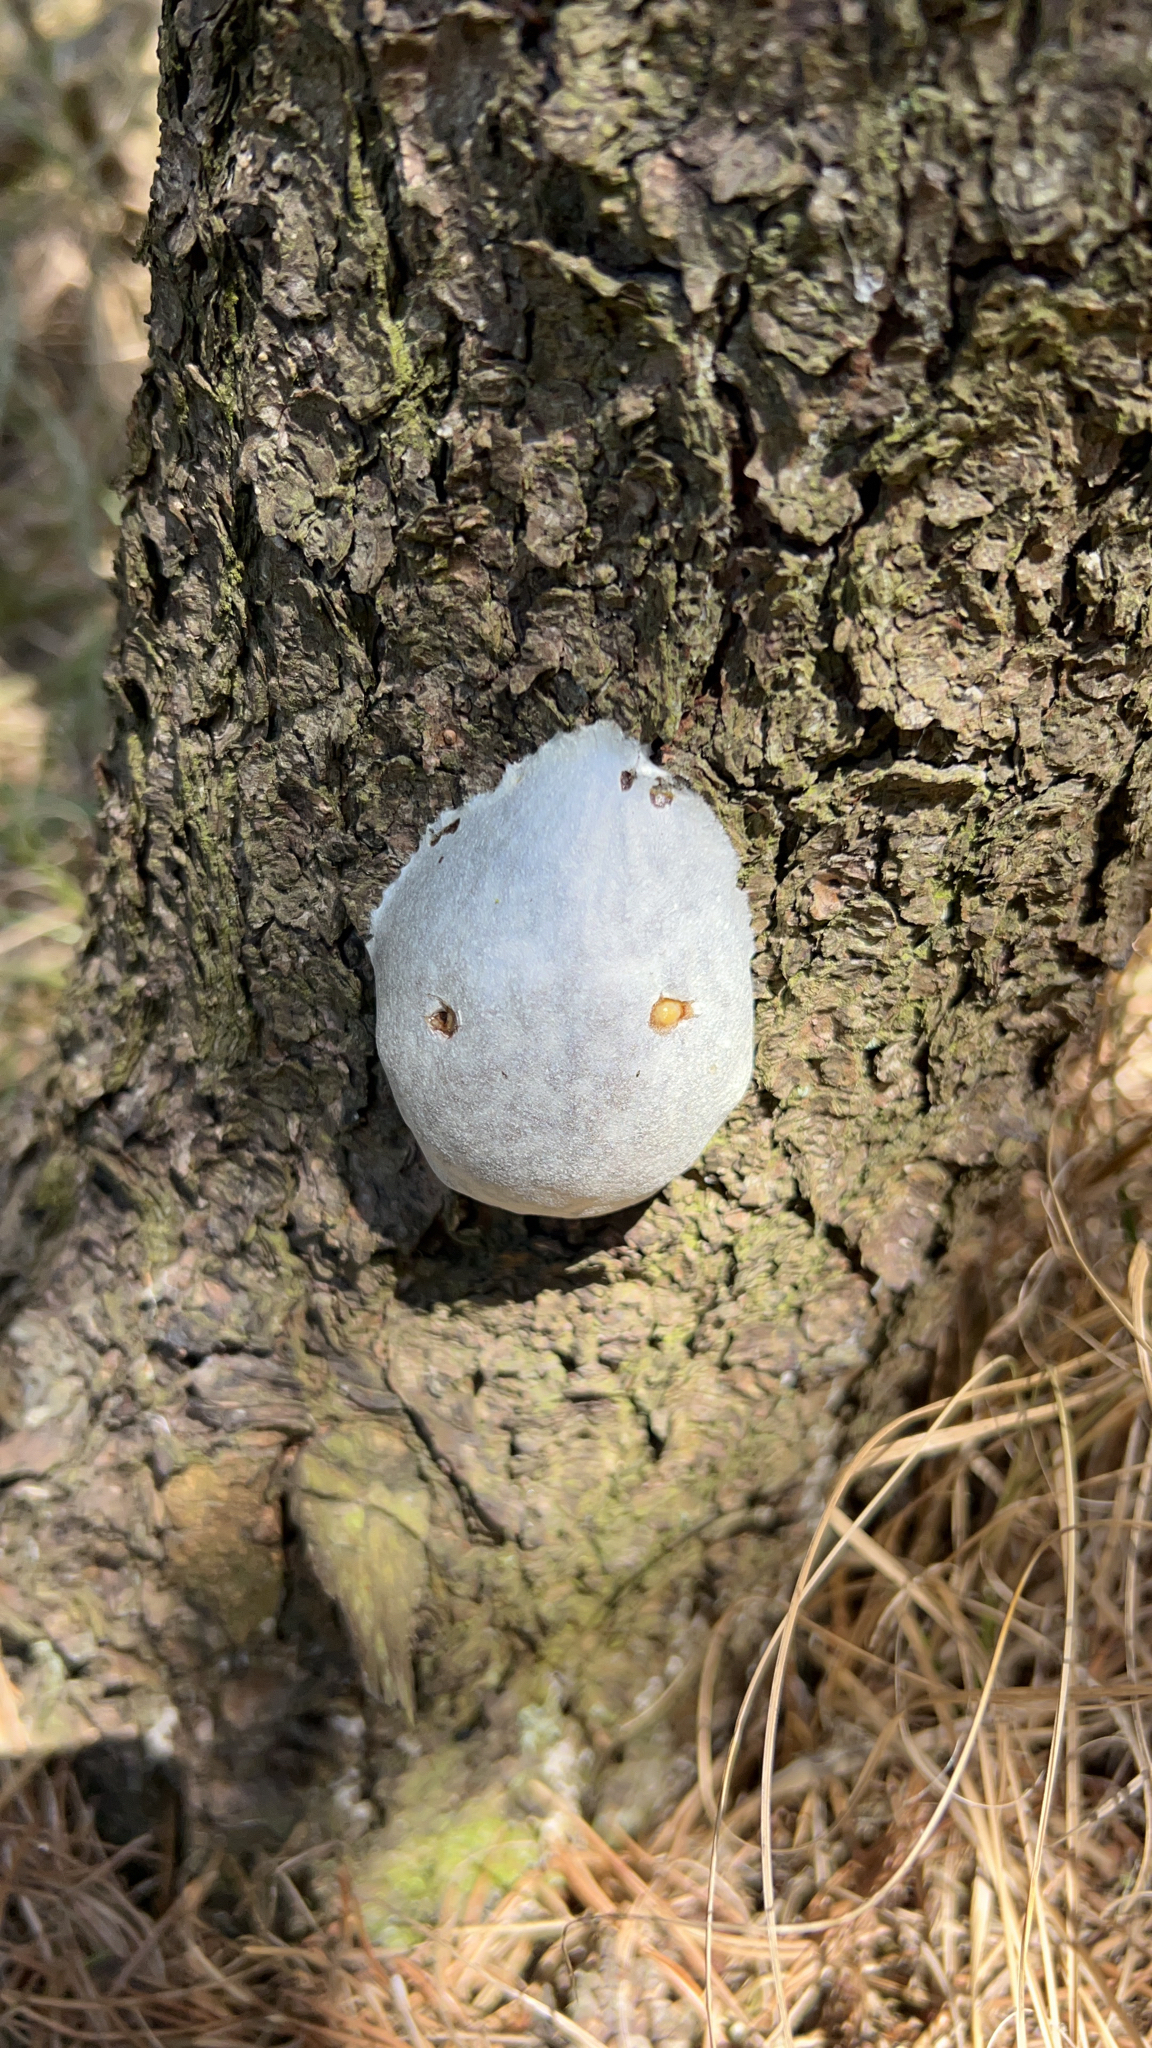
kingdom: Protozoa
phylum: Mycetozoa
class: Myxomycetes
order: Cribrariales
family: Tubiferaceae
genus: Reticularia
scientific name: Reticularia lycoperdon
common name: False puffball
